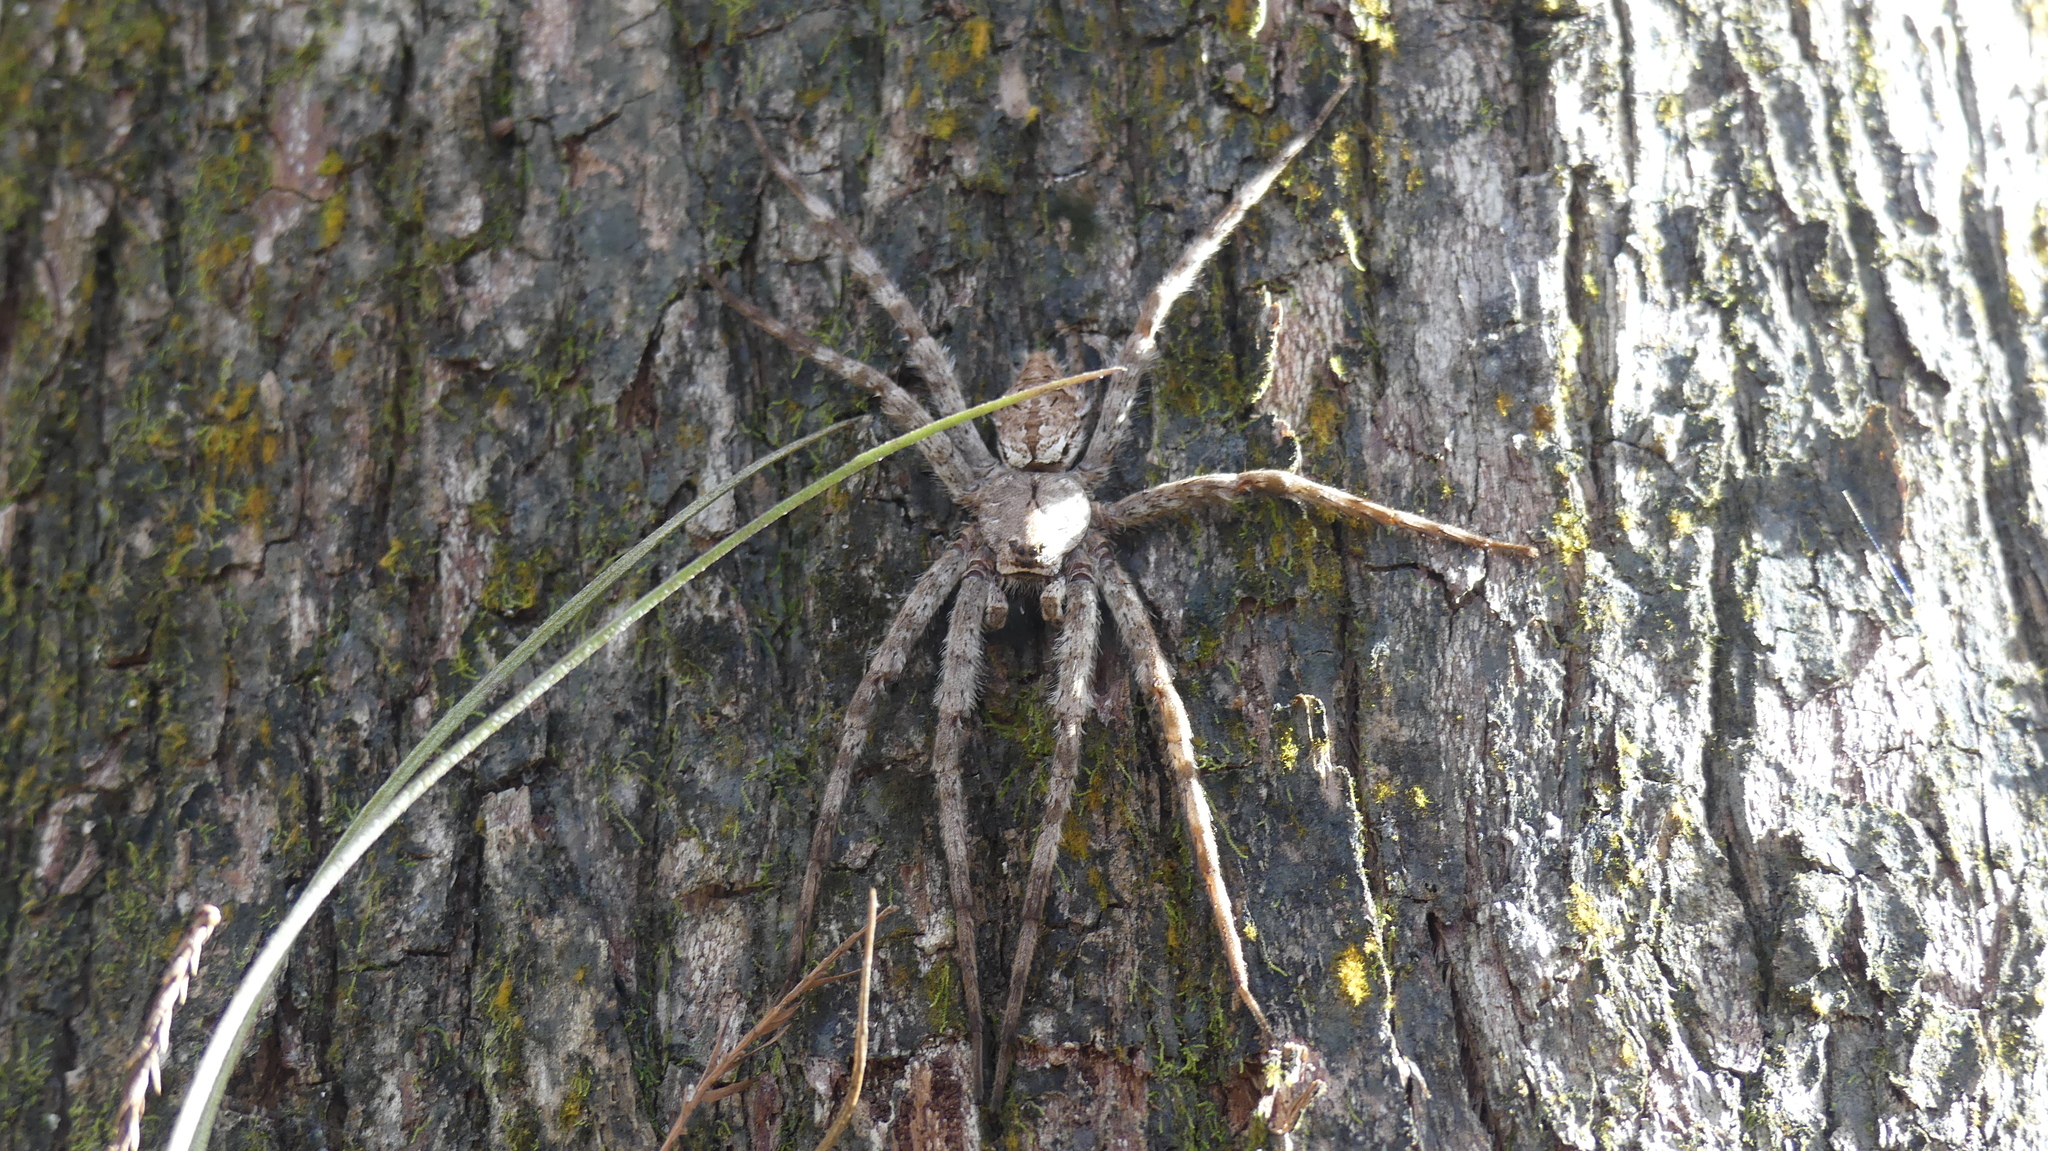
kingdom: Animalia
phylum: Arthropoda
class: Arachnida
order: Araneae
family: Pisauridae
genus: Dolomedes
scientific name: Dolomedes albineus
